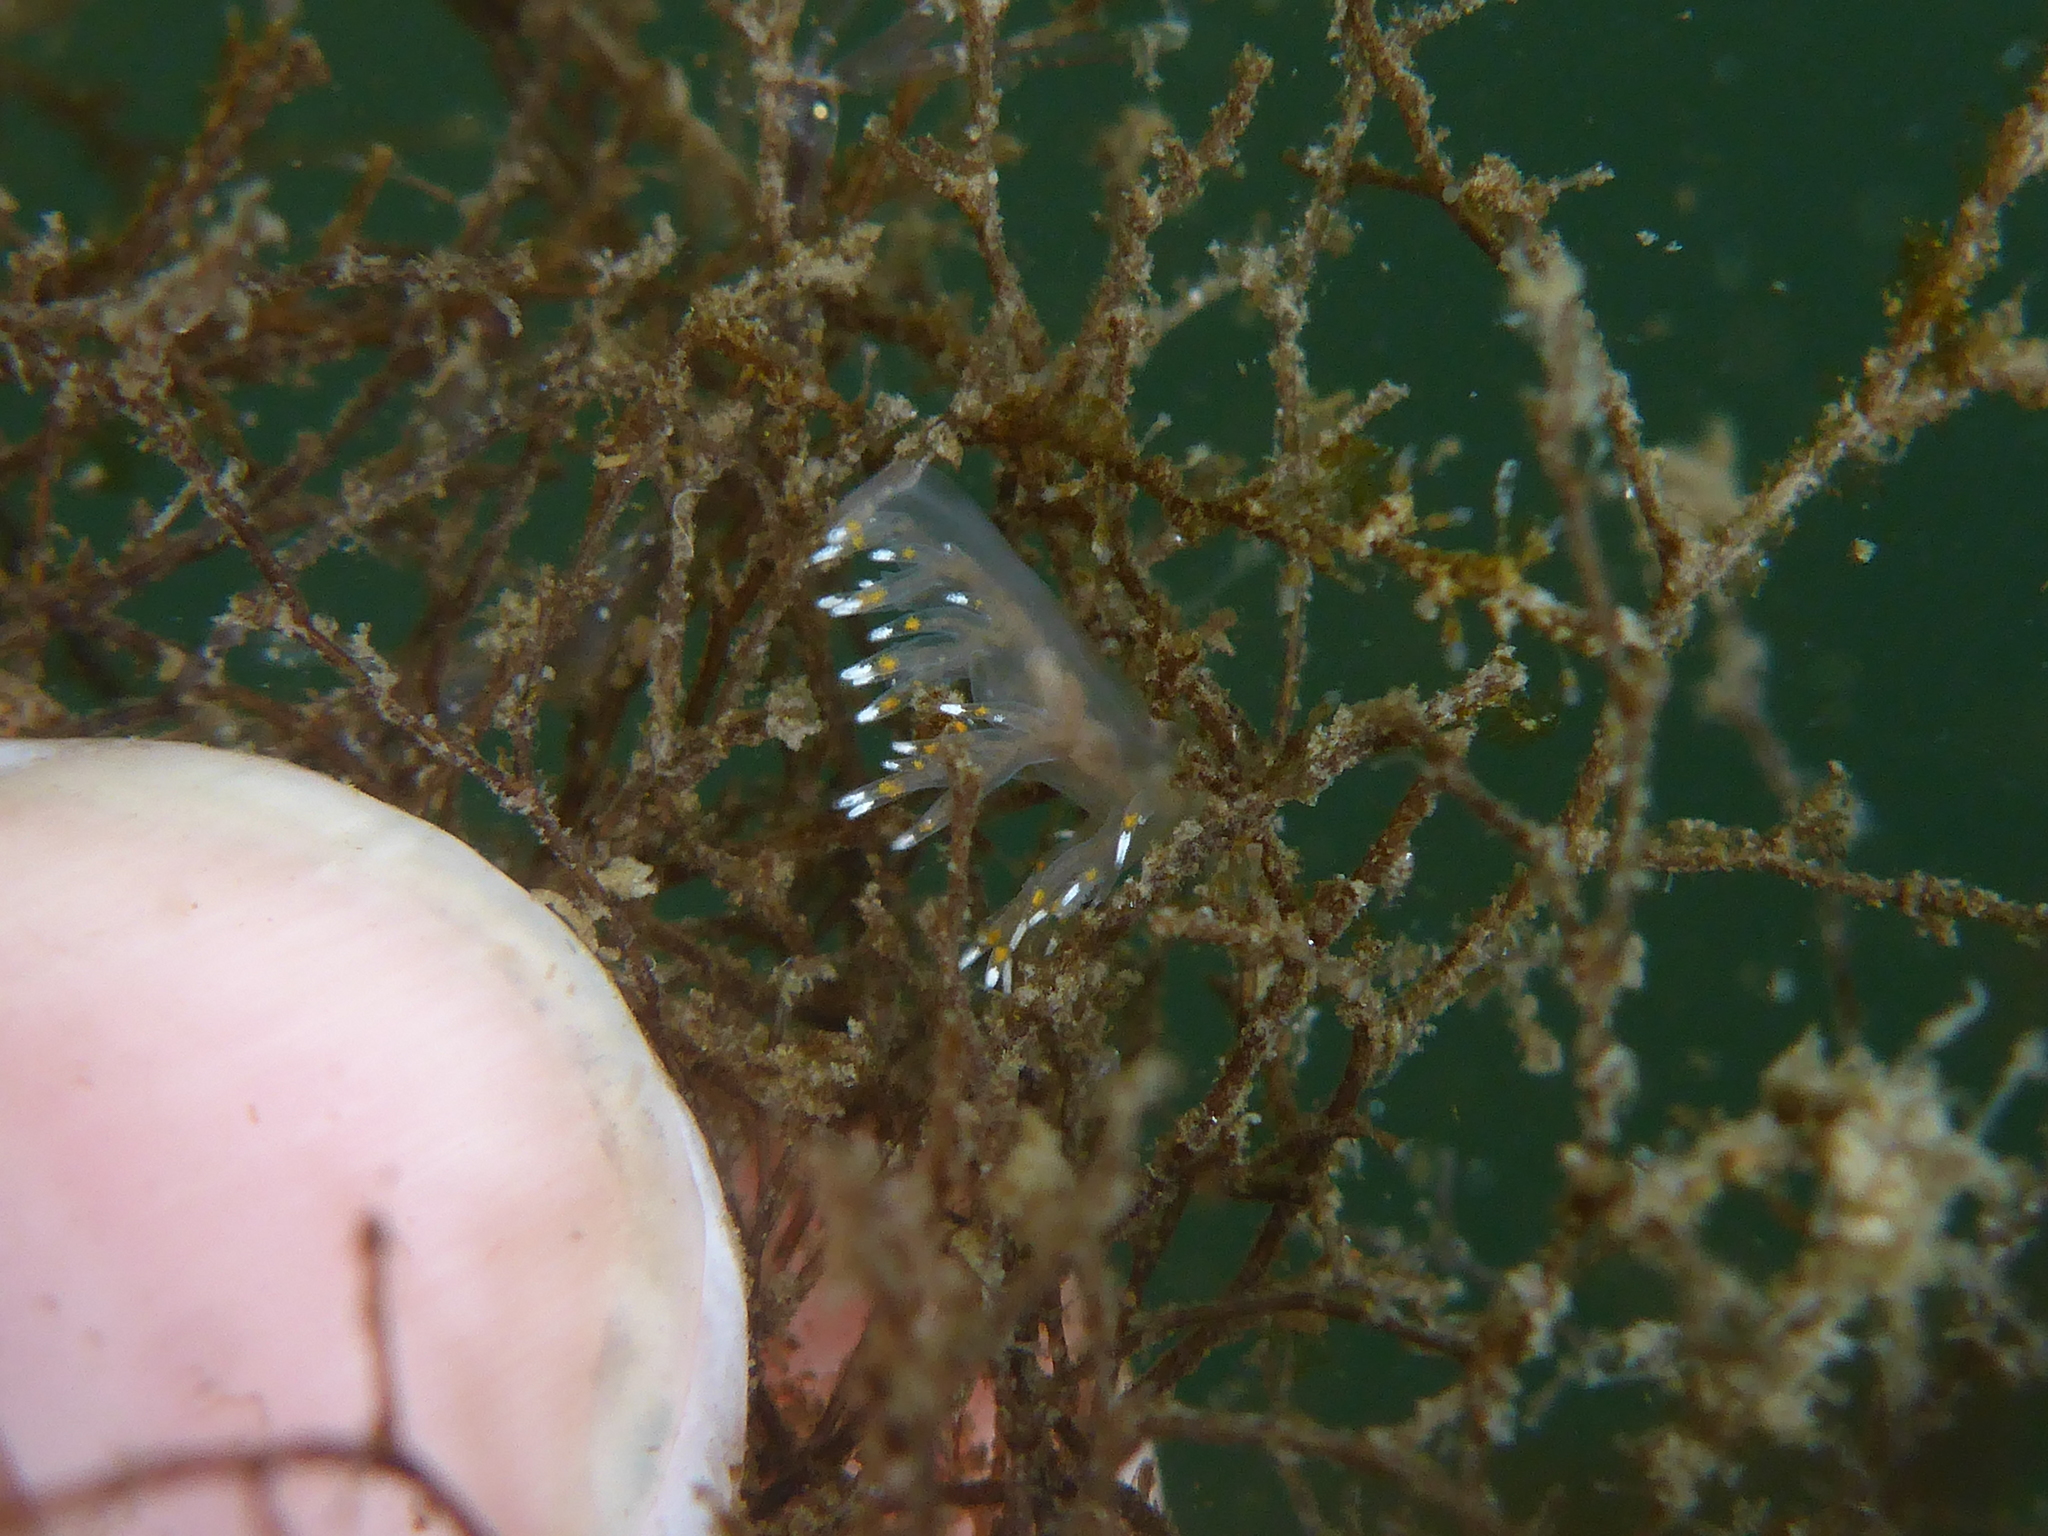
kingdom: Animalia
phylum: Mollusca
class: Gastropoda
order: Nudibranchia
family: Dendronotidae
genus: Dendronotus
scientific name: Dendronotus iris
